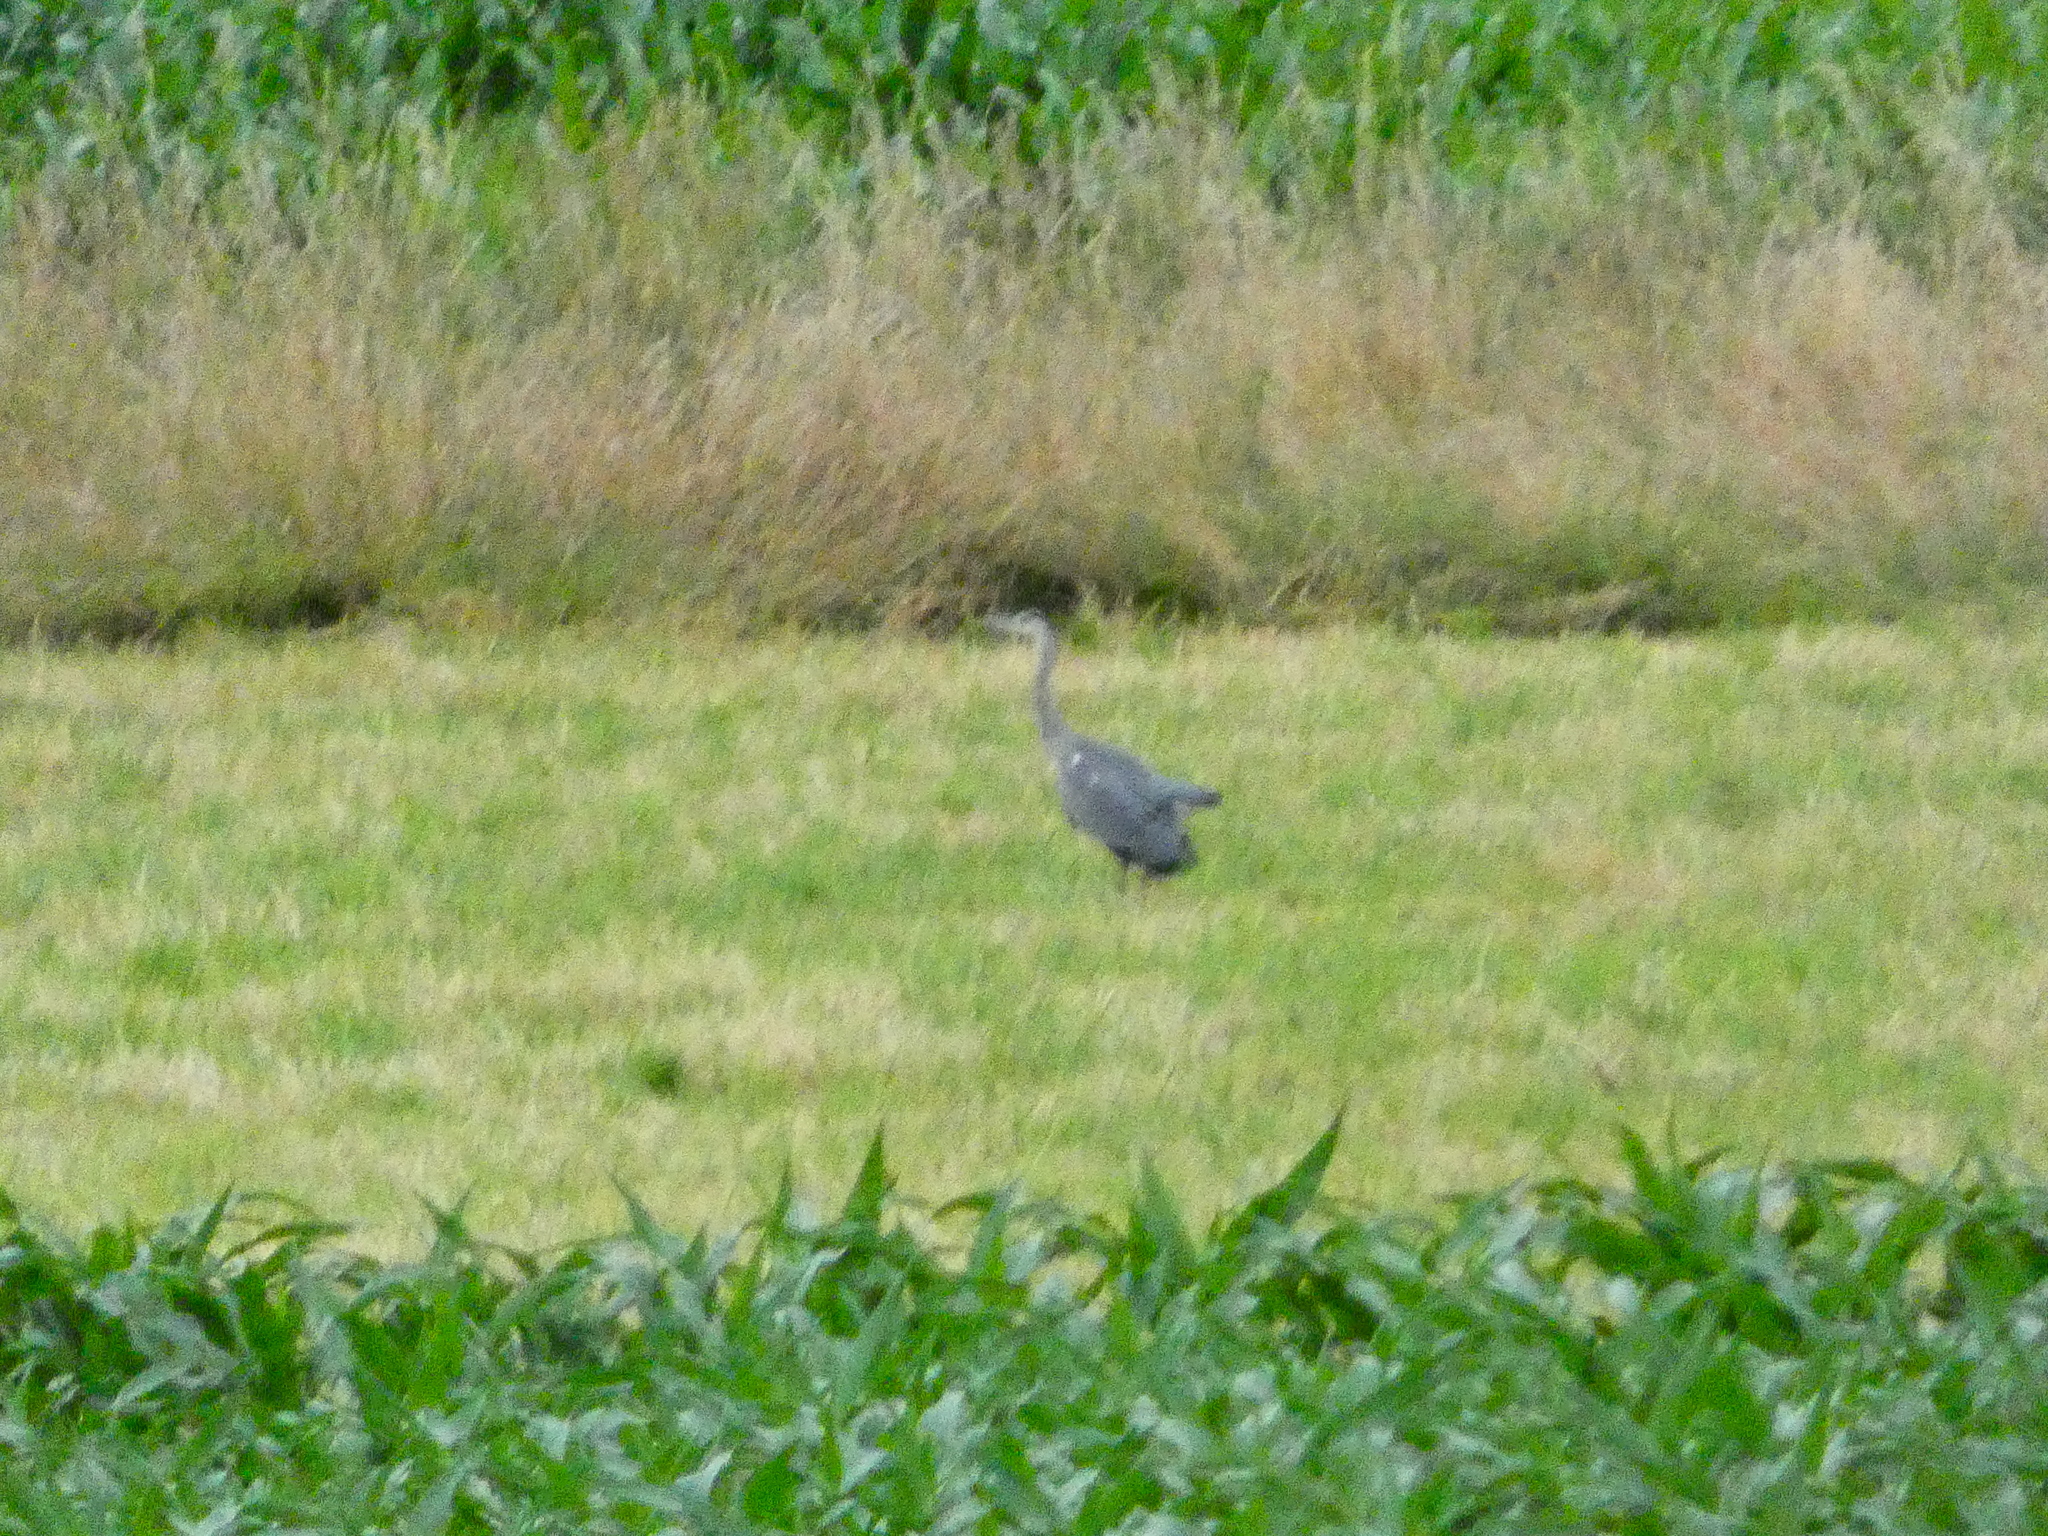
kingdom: Animalia
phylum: Chordata
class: Aves
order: Pelecaniformes
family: Ardeidae
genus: Ardea
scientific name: Ardea cinerea
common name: Grey heron
